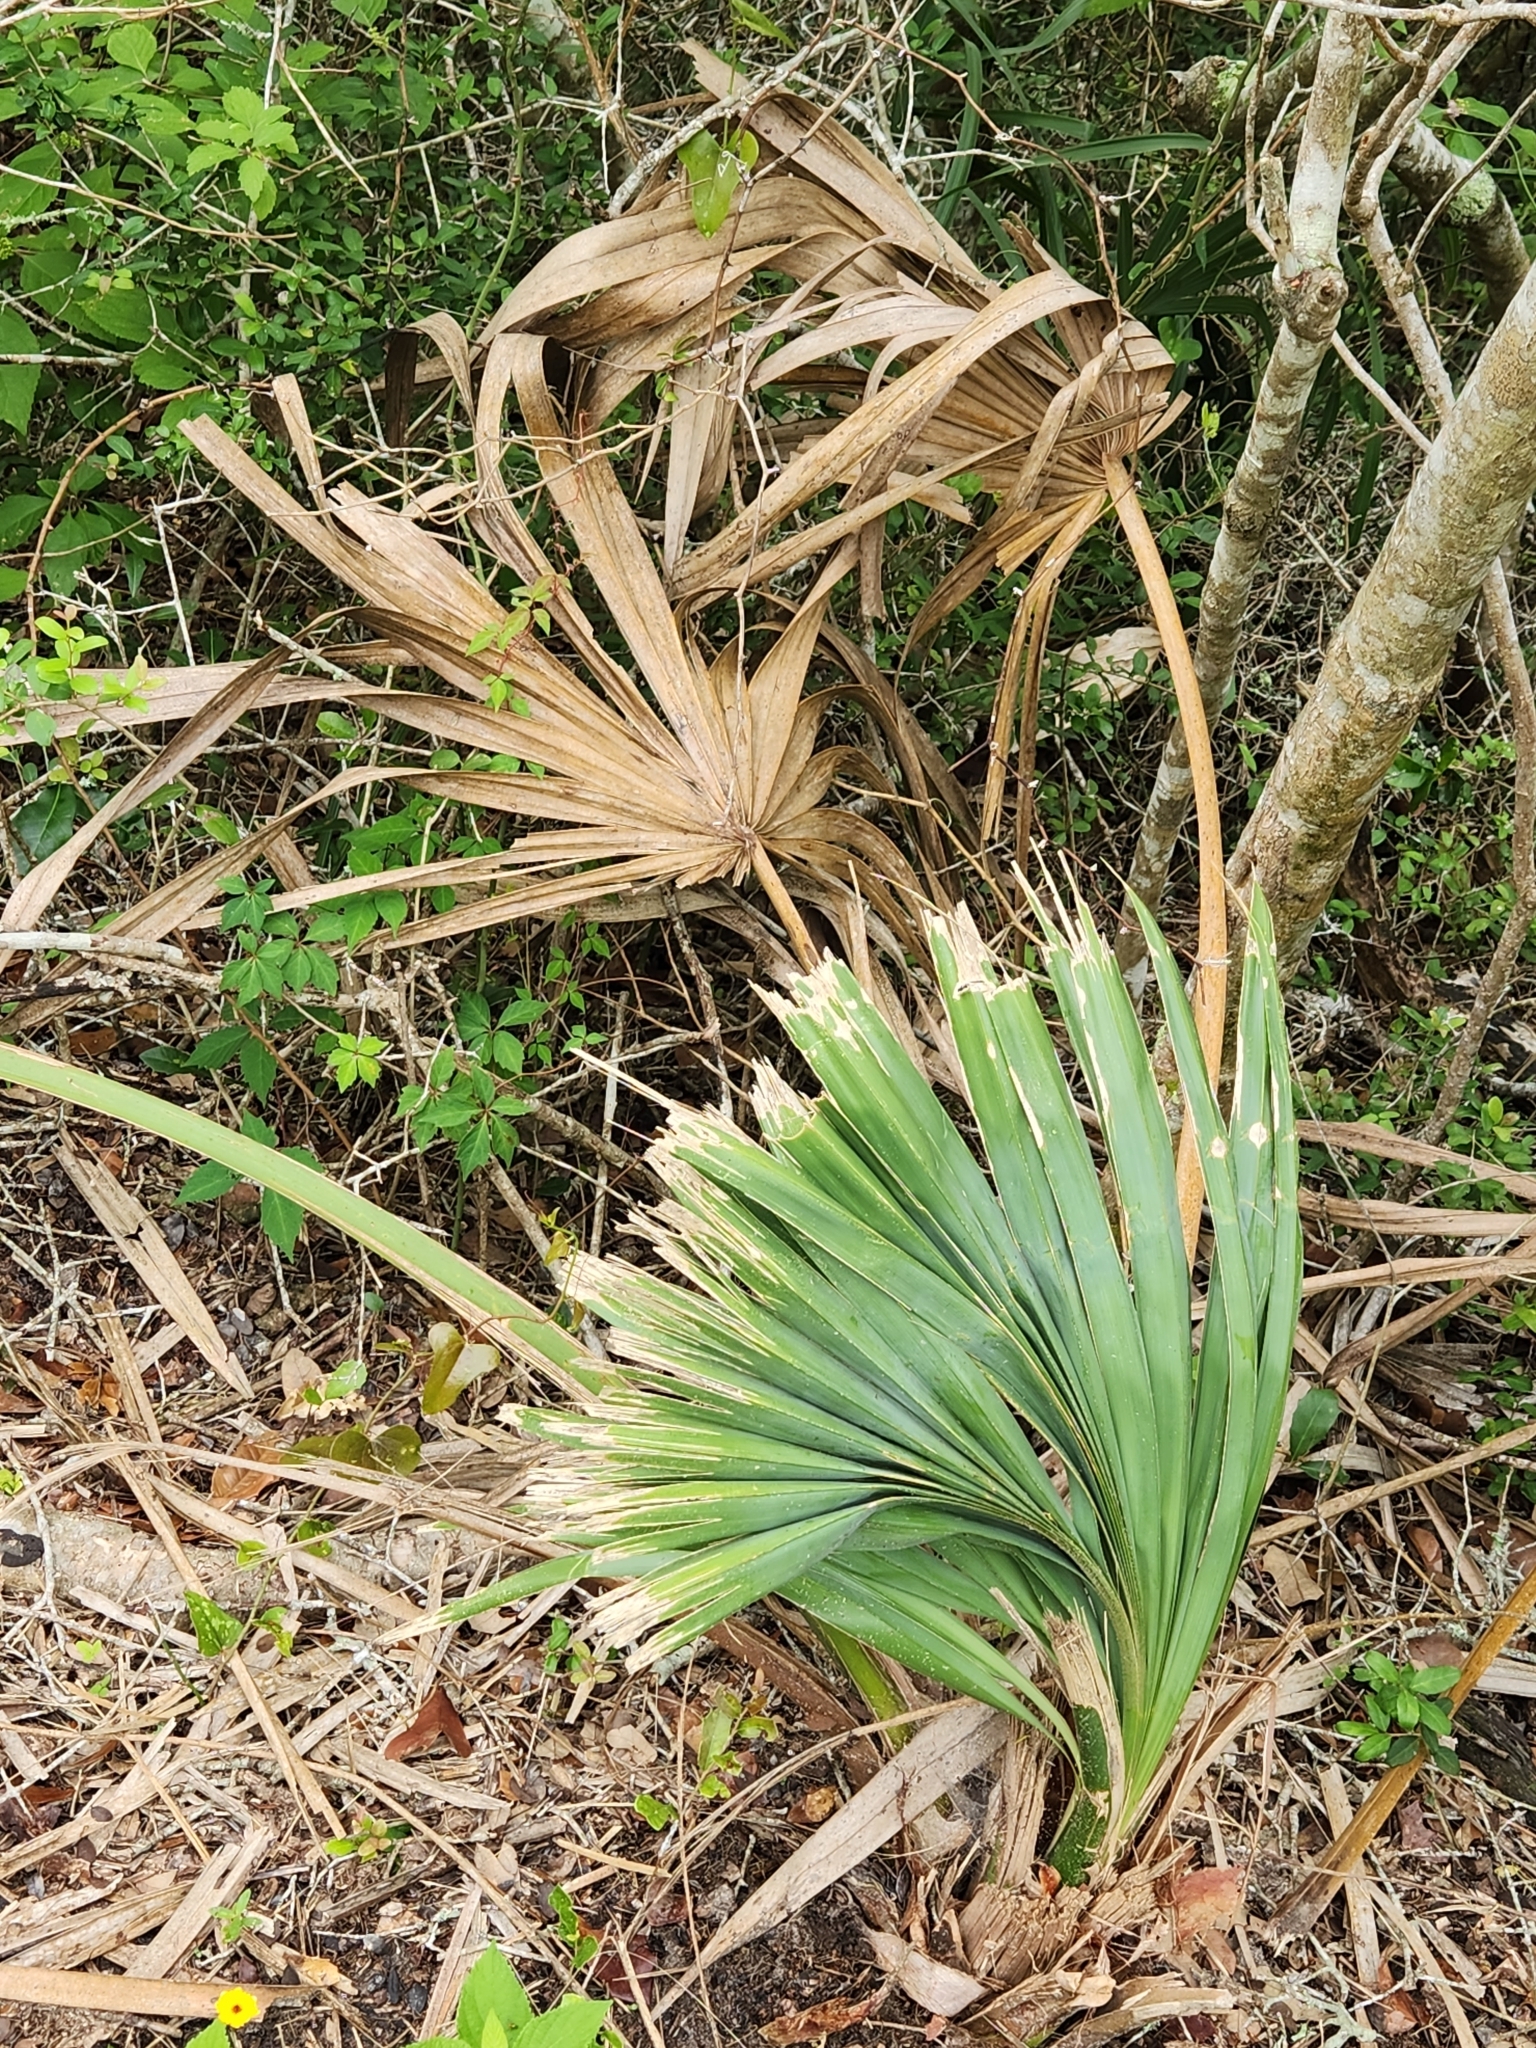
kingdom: Plantae
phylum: Tracheophyta
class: Liliopsida
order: Arecales
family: Arecaceae
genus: Sabal
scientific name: Sabal minor
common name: Dwarf palmetto
